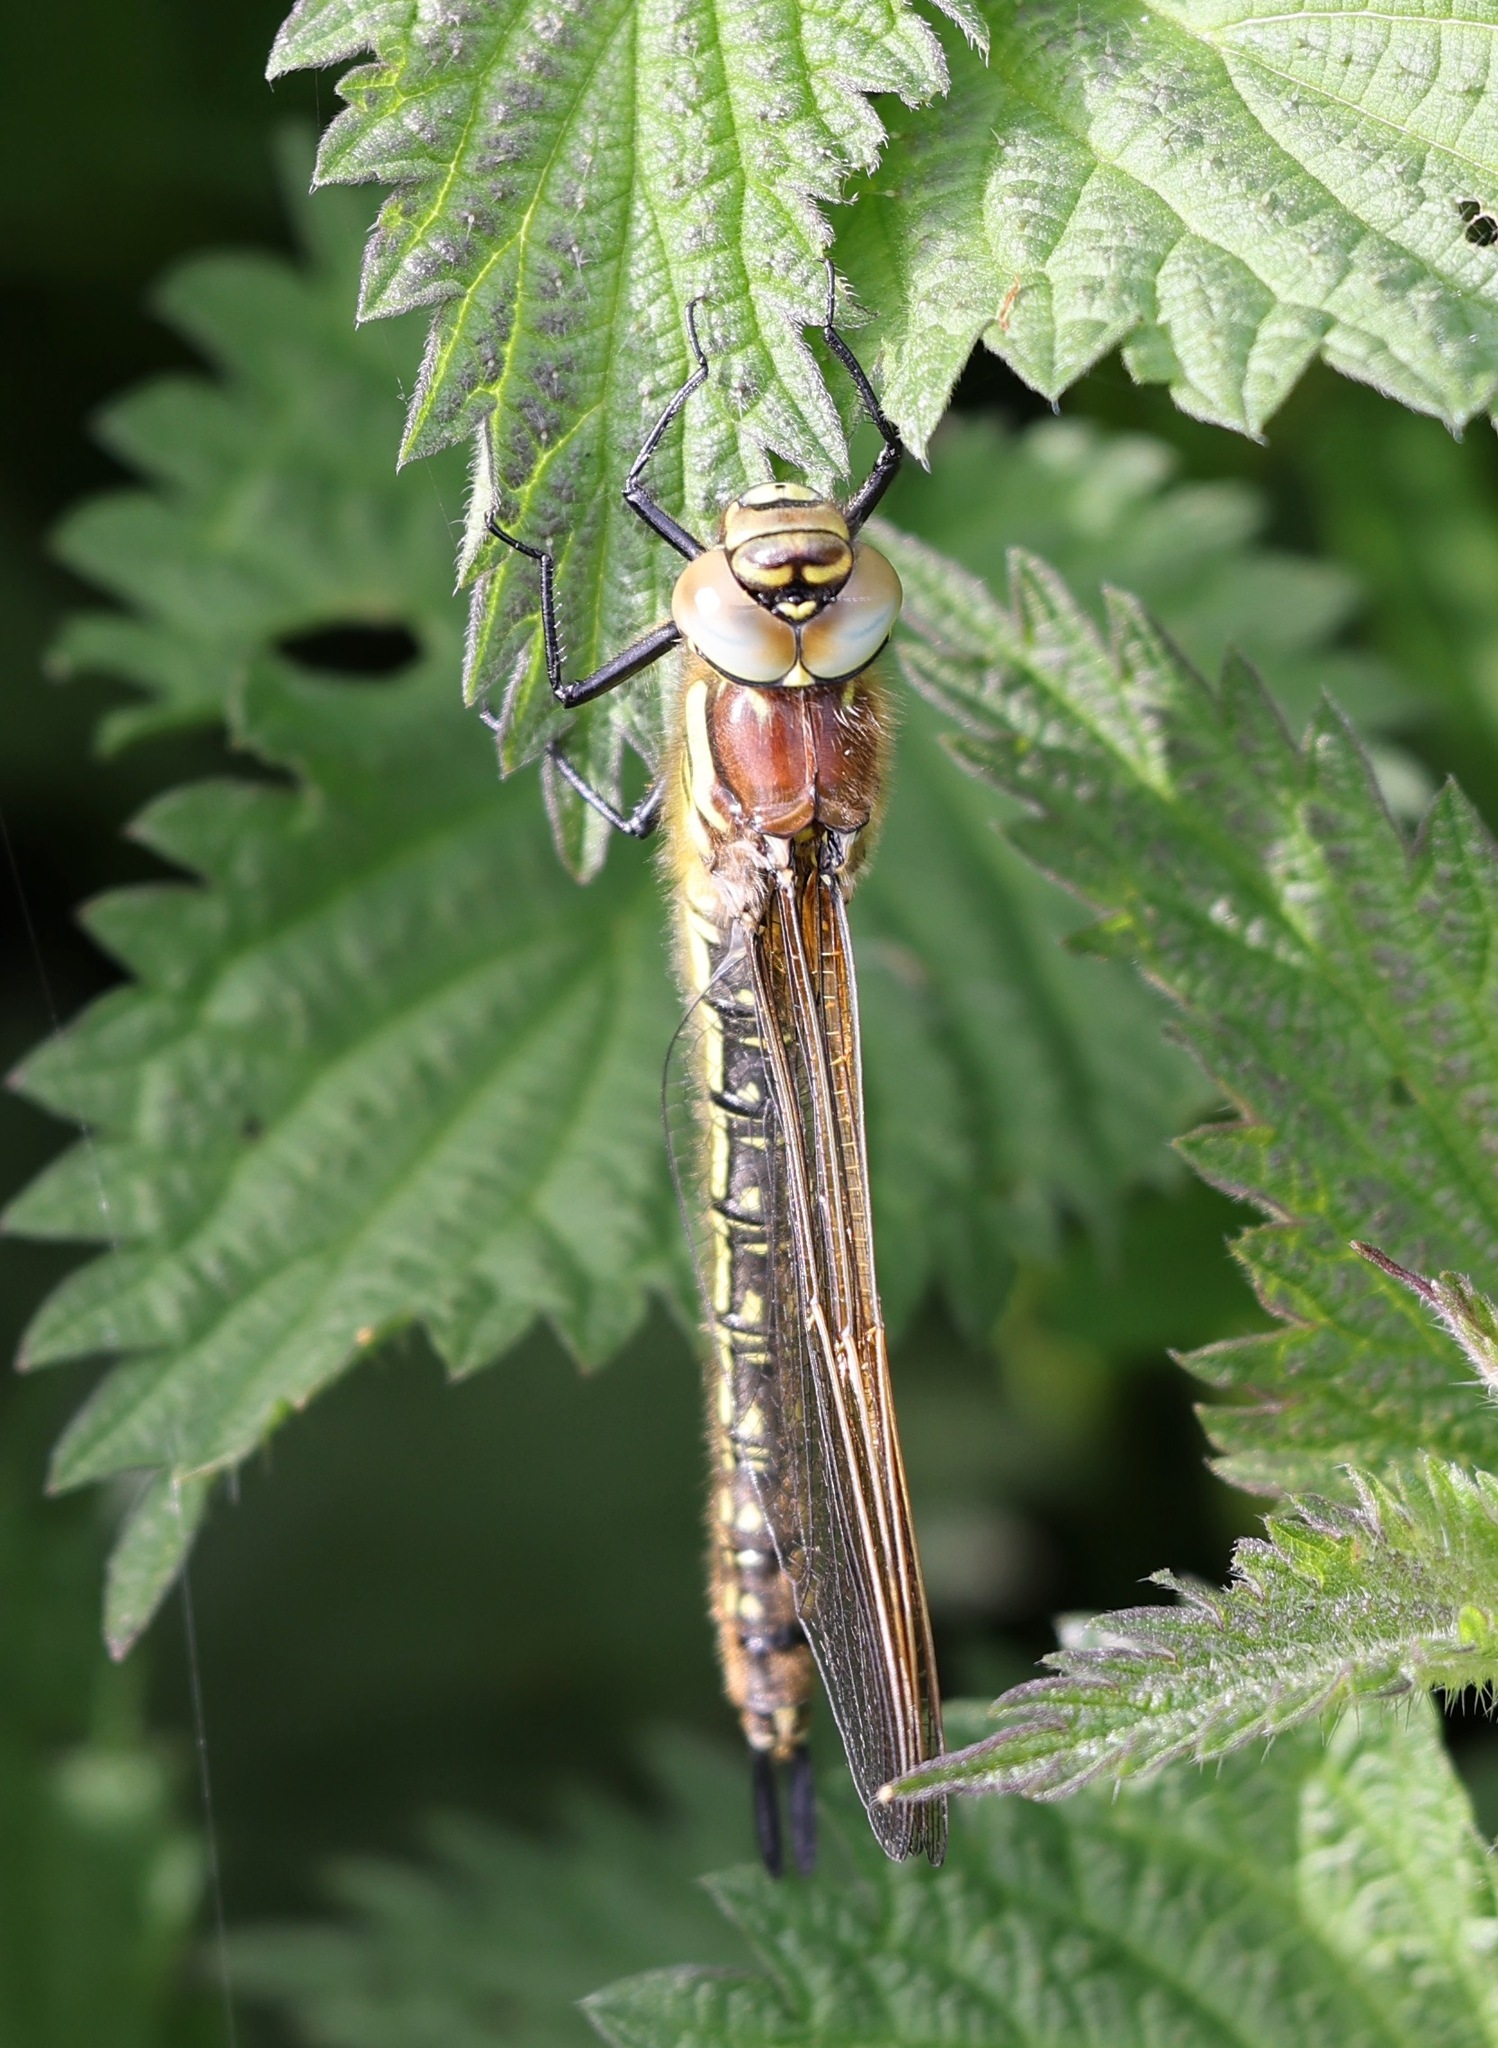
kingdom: Animalia
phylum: Arthropoda
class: Insecta
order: Odonata
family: Aeshnidae
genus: Brachytron
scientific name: Brachytron pratense
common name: Hairy hawker
